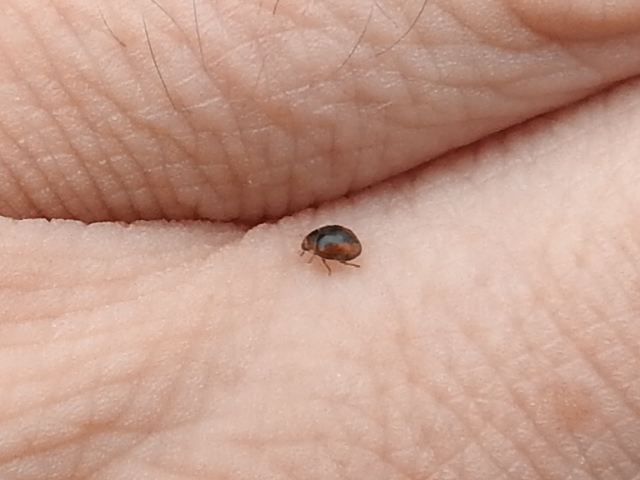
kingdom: Animalia
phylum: Arthropoda
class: Insecta
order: Coleoptera
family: Coccinellidae
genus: Scymnus
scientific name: Scymnus loewii
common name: Dusky lady beetle
